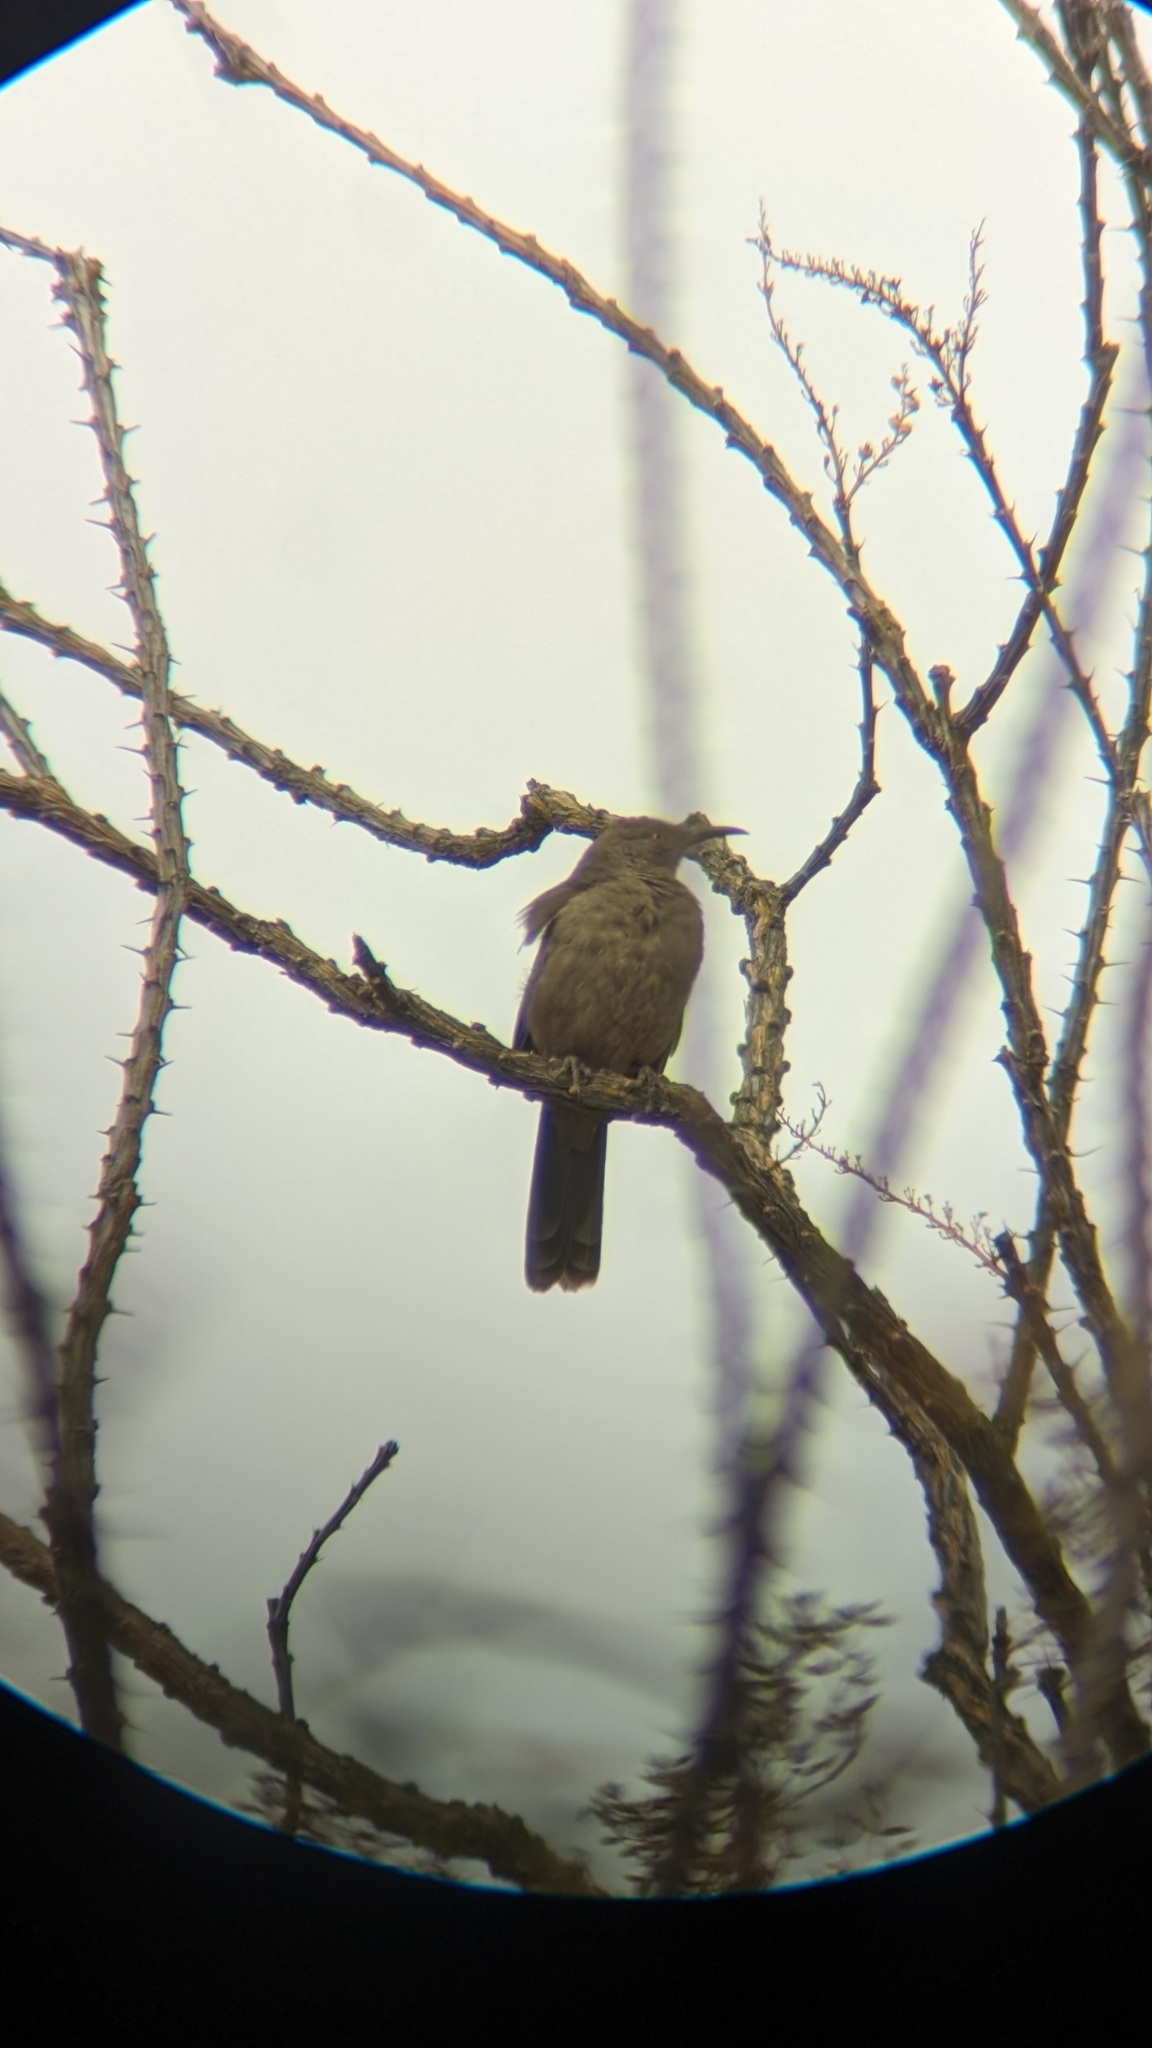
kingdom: Animalia
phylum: Chordata
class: Aves
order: Passeriformes
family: Mimidae
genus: Toxostoma
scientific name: Toxostoma curvirostre
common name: Curve-billed thrasher
